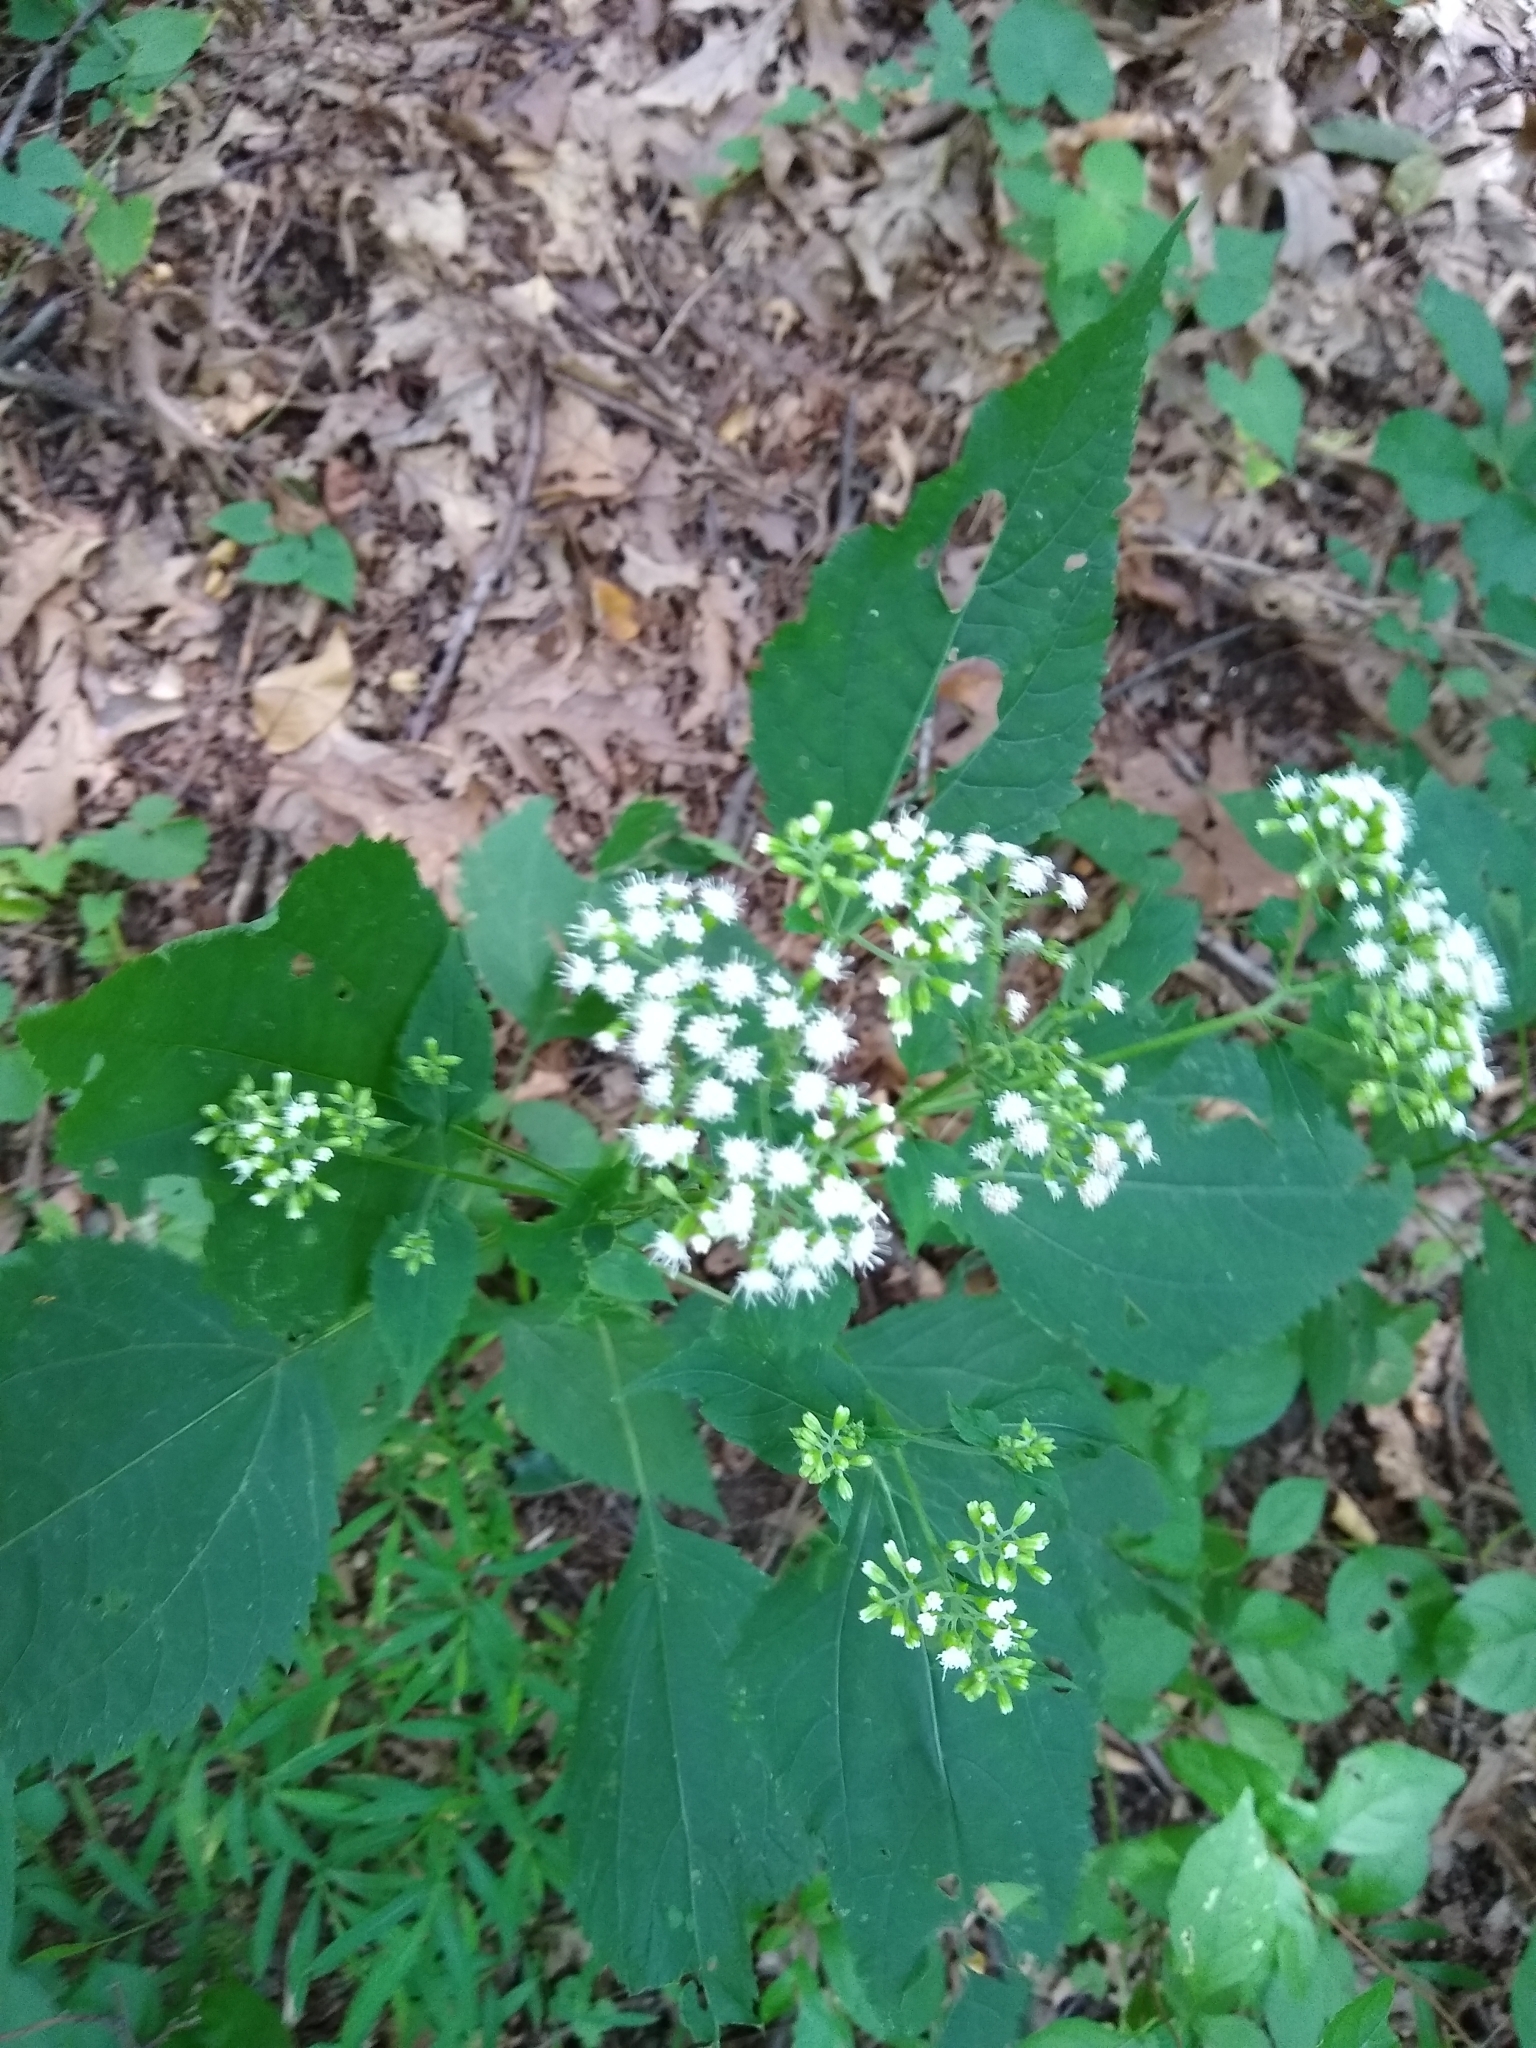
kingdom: Plantae
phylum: Tracheophyta
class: Magnoliopsida
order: Asterales
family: Asteraceae
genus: Ageratina
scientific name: Ageratina altissima
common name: White snakeroot
